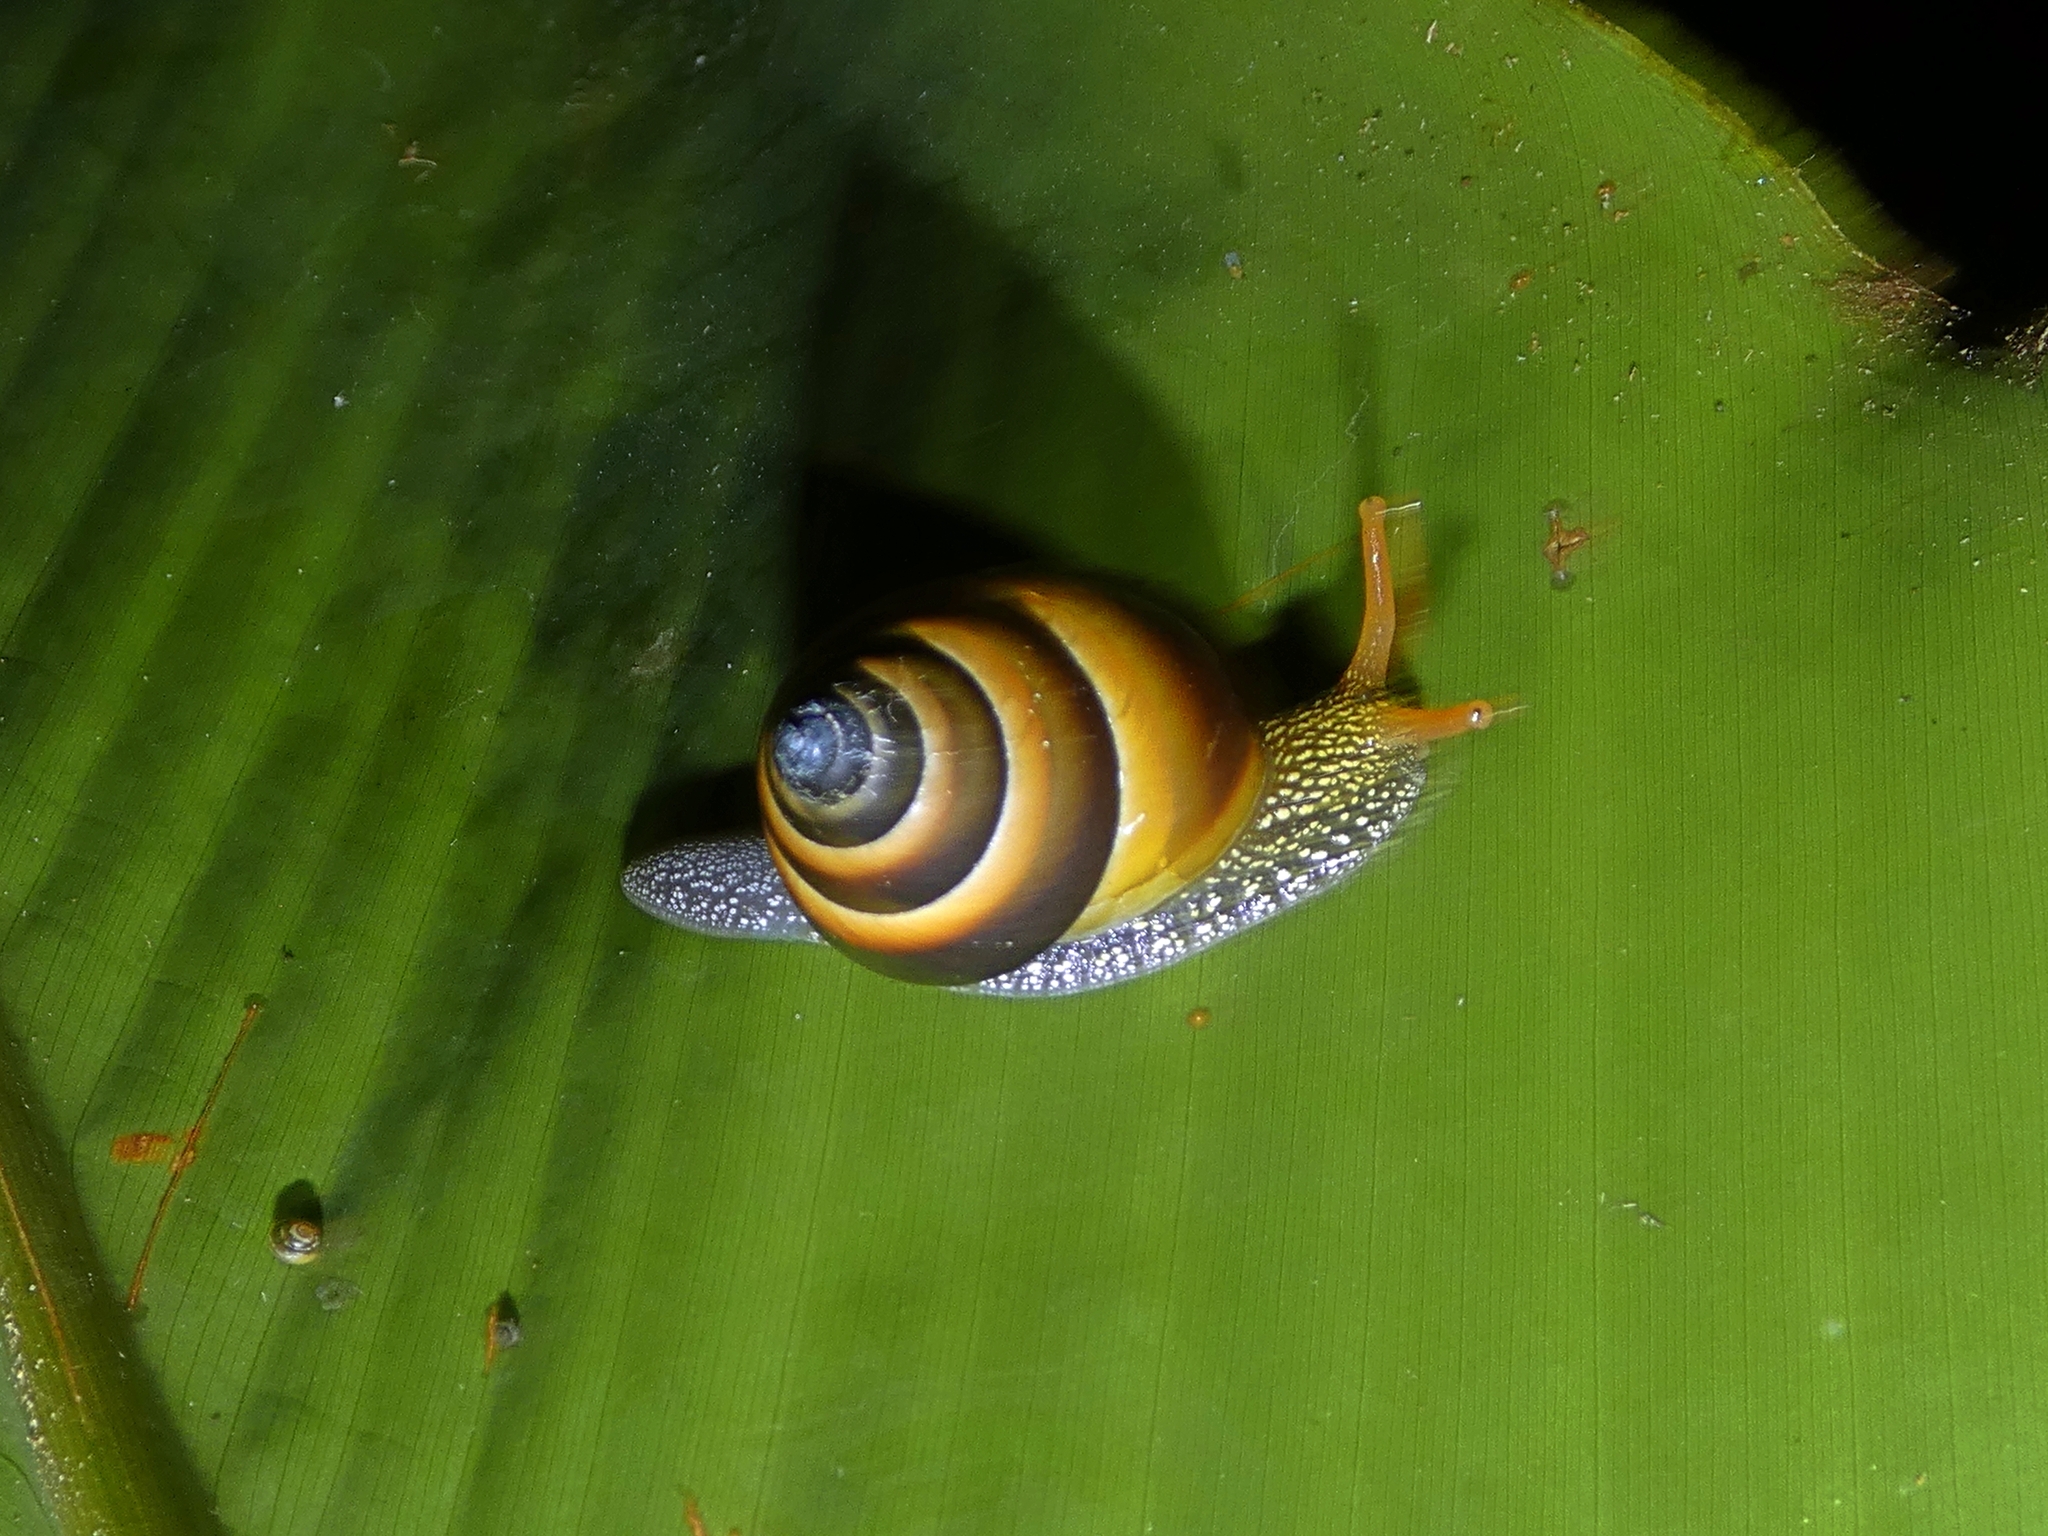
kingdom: Animalia
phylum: Mollusca
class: Gastropoda
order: Stylommatophora
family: Camaenidae
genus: Noctepuna
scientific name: Noctepuna mayana
